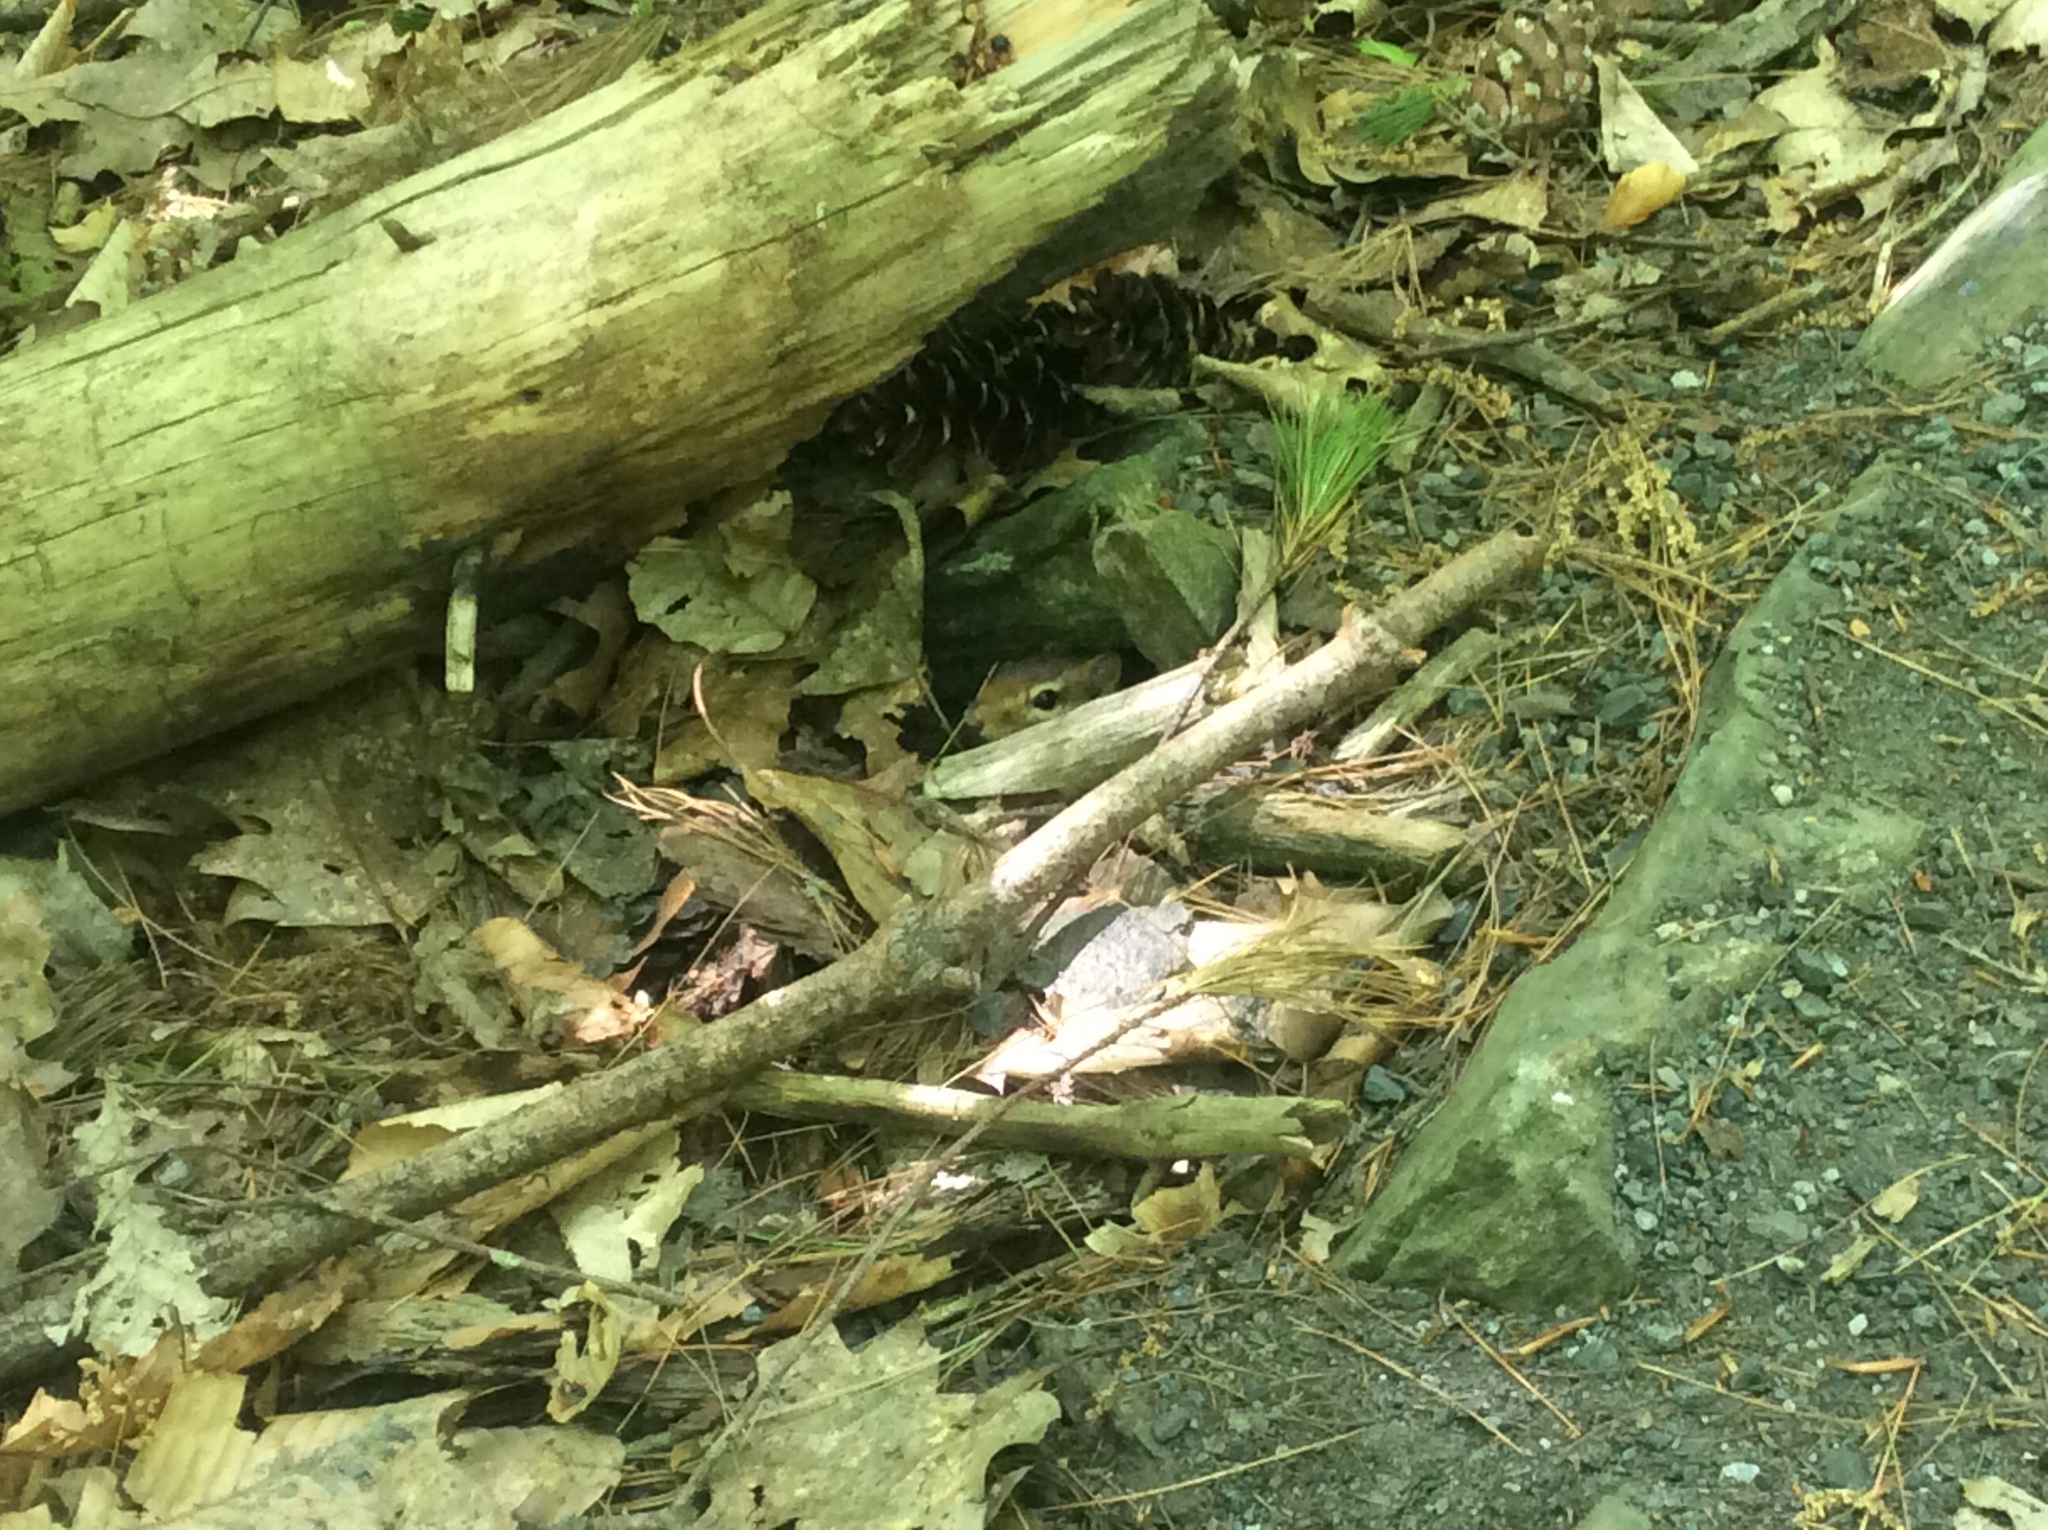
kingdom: Animalia
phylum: Chordata
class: Mammalia
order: Rodentia
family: Sciuridae
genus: Tamias
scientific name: Tamias striatus
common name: Eastern chipmunk
